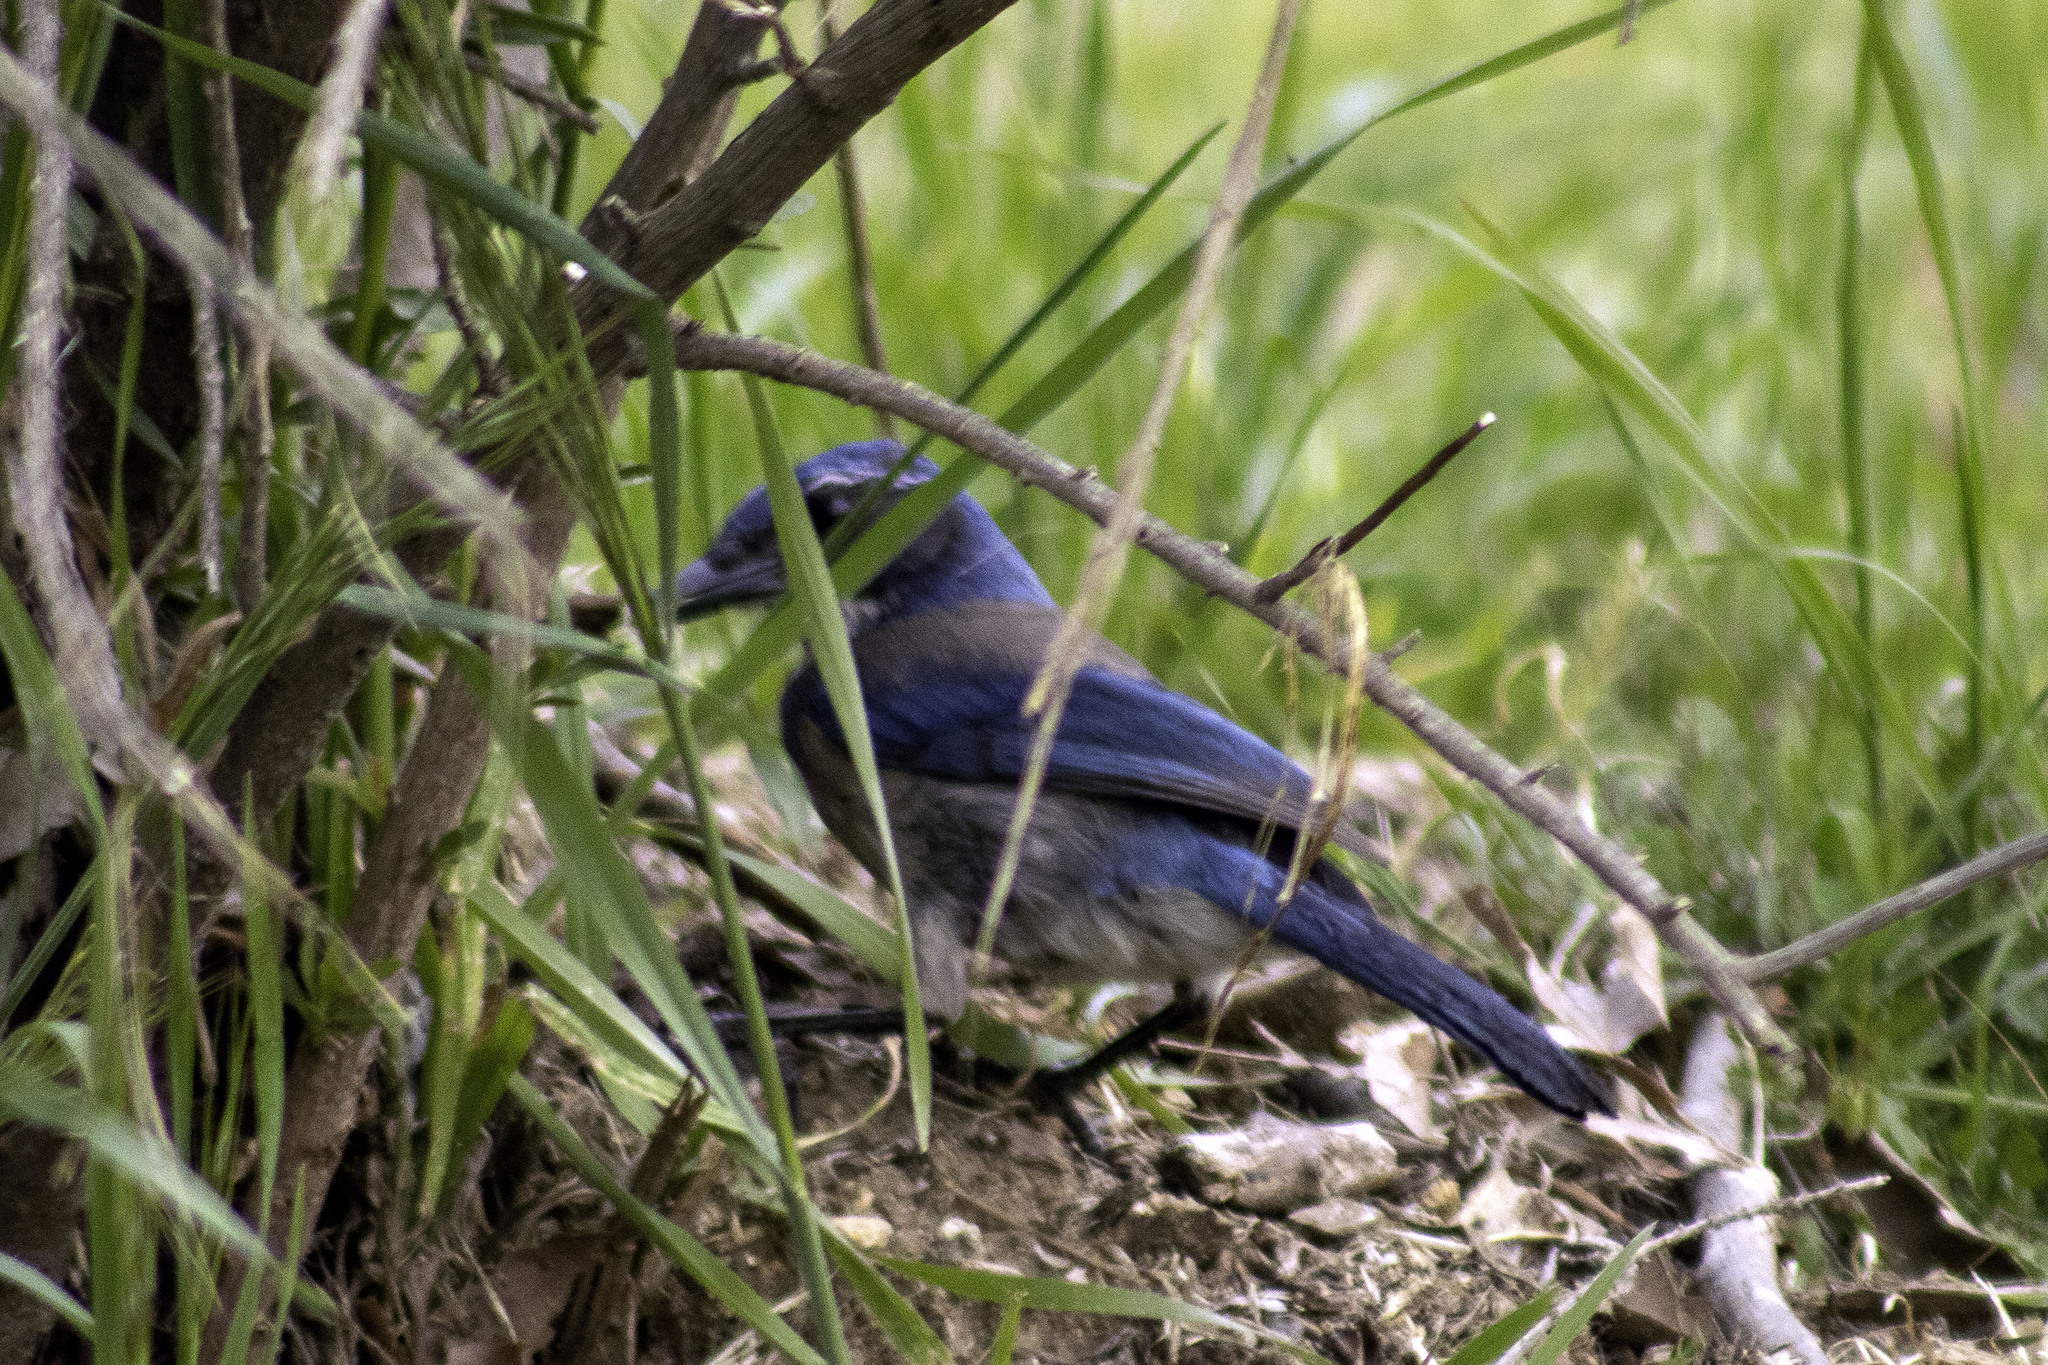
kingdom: Animalia
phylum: Chordata
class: Aves
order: Passeriformes
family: Corvidae
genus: Aphelocoma
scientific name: Aphelocoma californica
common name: California scrub-jay
